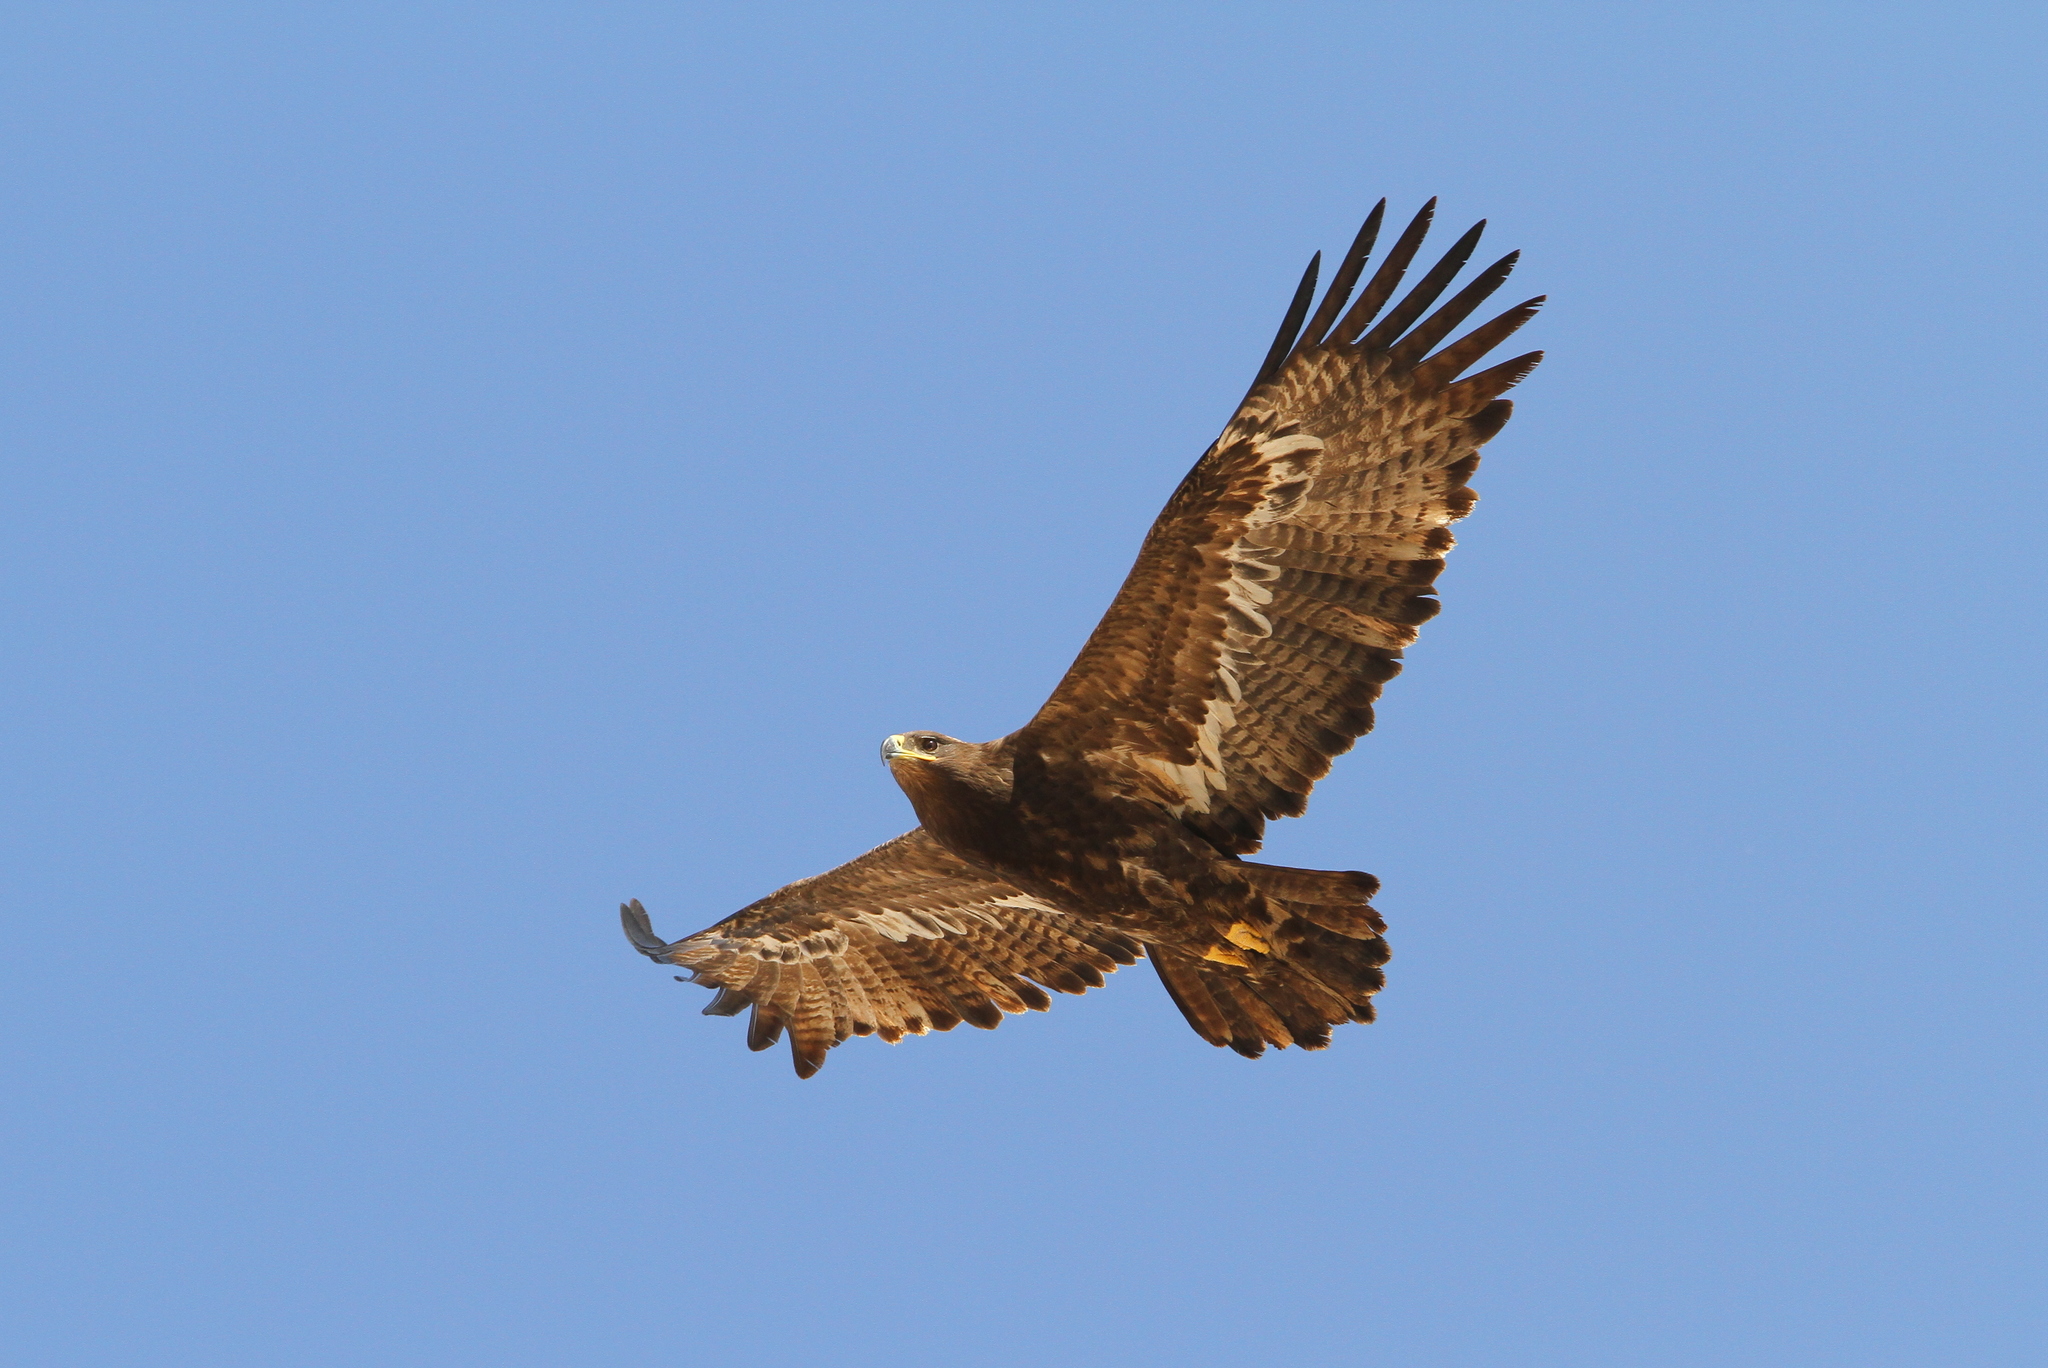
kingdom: Animalia
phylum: Chordata
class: Aves
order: Accipitriformes
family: Accipitridae
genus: Aquila
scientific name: Aquila nipalensis
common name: Steppe eagle
